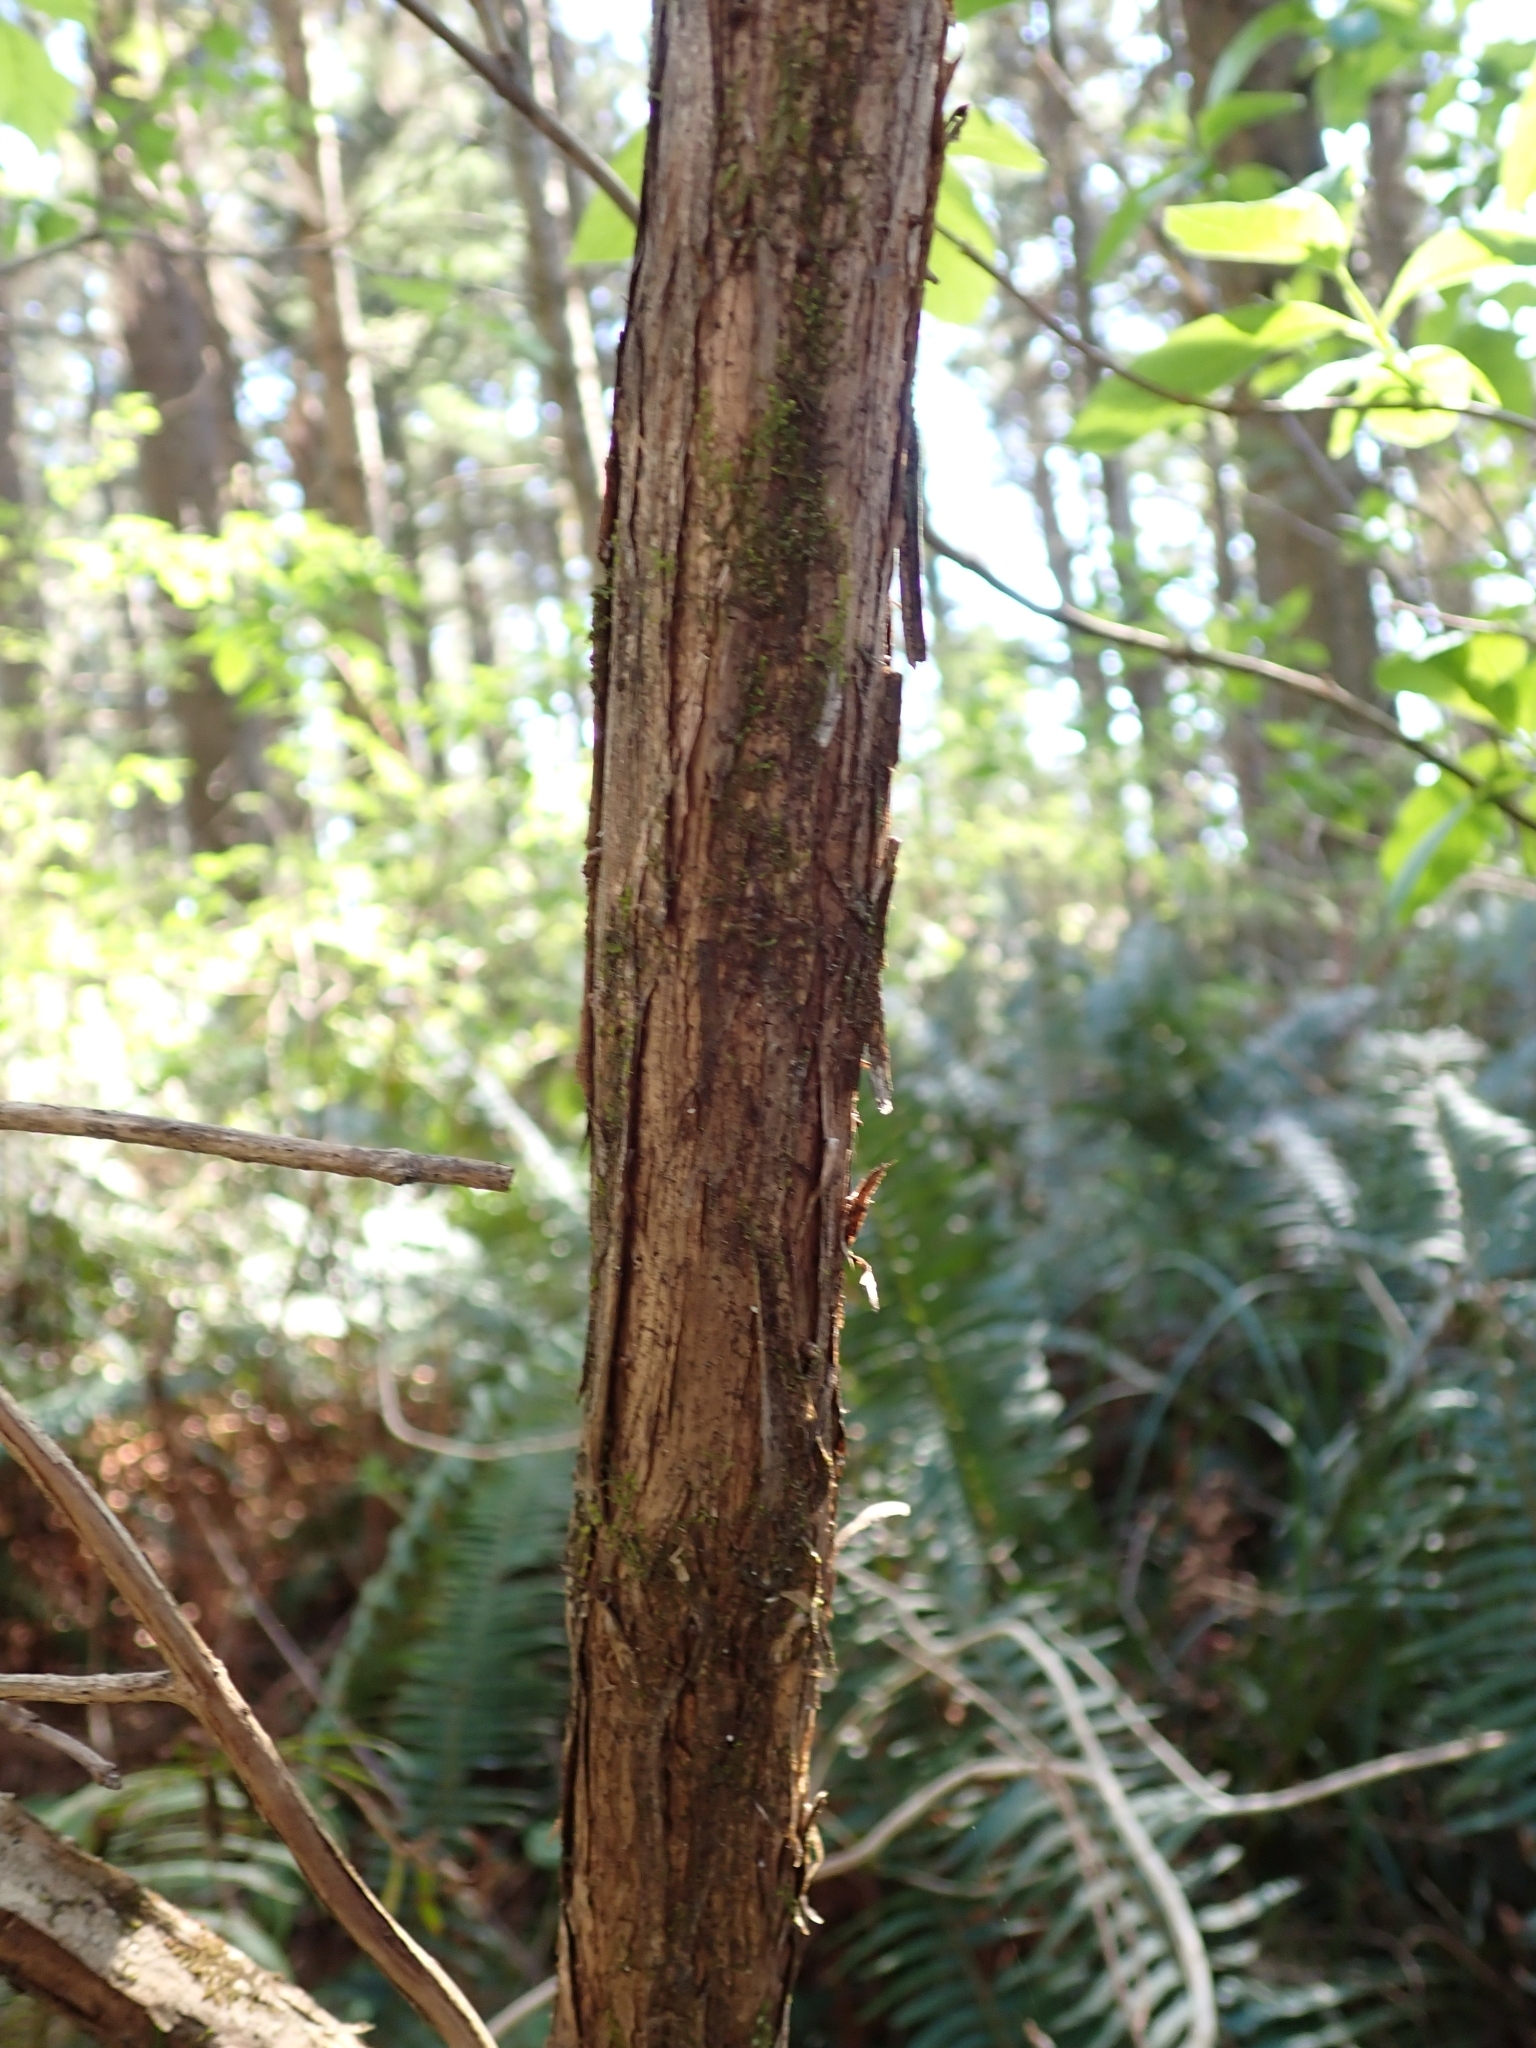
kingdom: Plantae
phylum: Tracheophyta
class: Magnoliopsida
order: Dipsacales
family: Caprifoliaceae
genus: Lonicera
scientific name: Lonicera involucrata
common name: Californian honeysuckle
